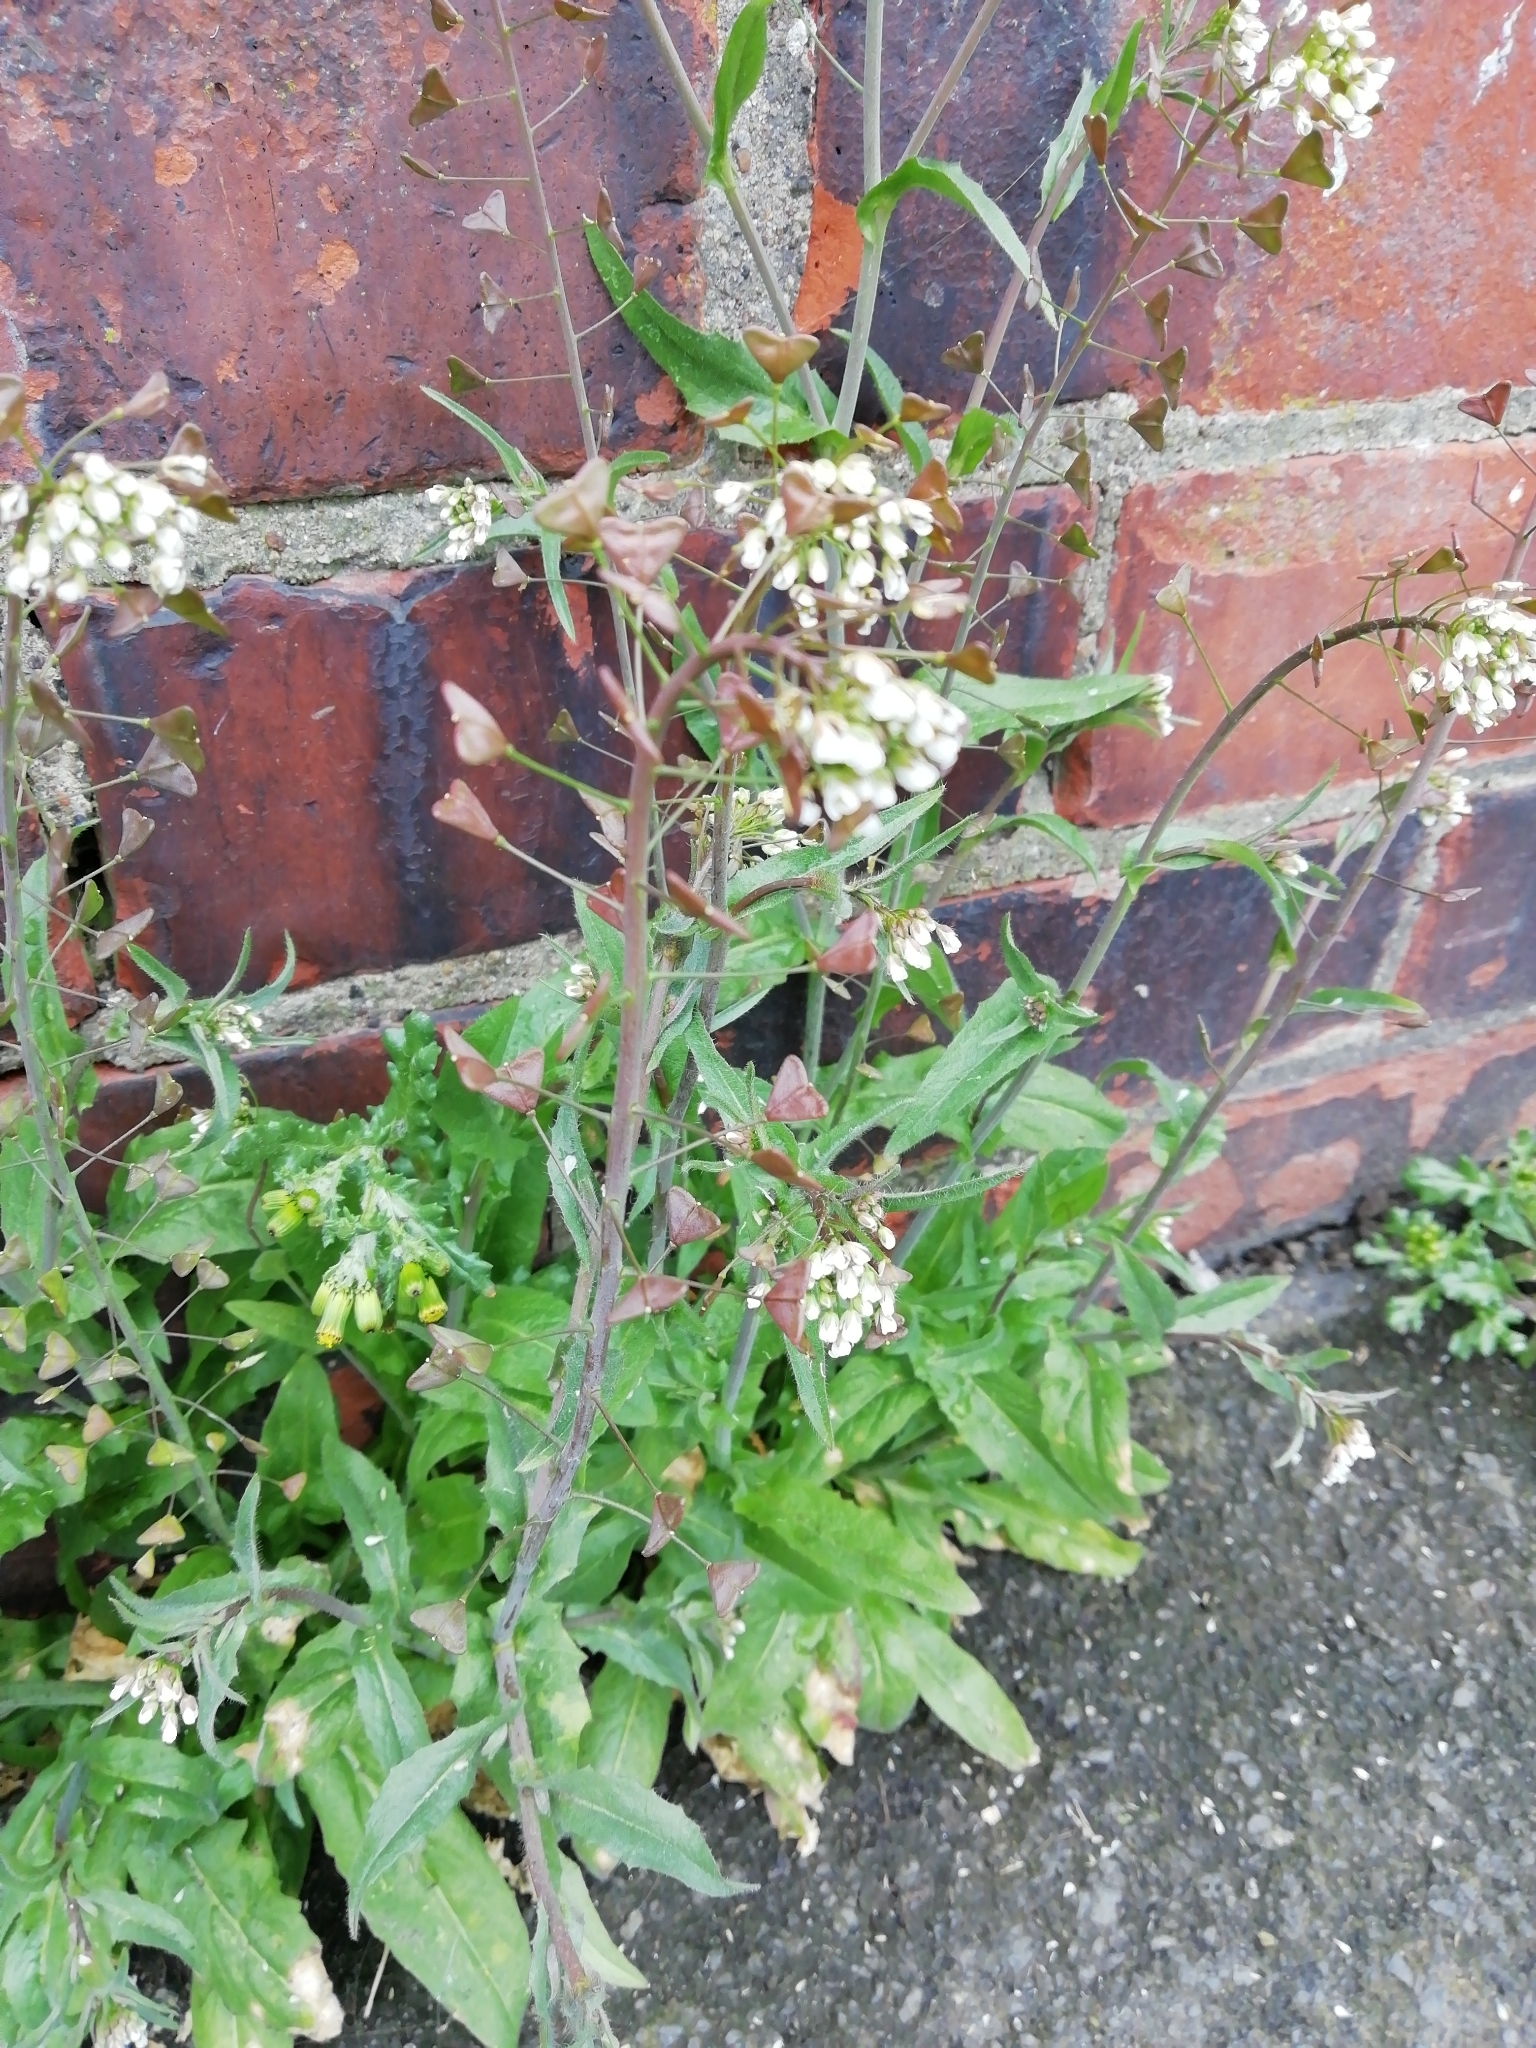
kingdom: Plantae
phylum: Tracheophyta
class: Magnoliopsida
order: Brassicales
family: Brassicaceae
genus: Capsella
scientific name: Capsella bursa-pastoris
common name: Shepherd's purse
